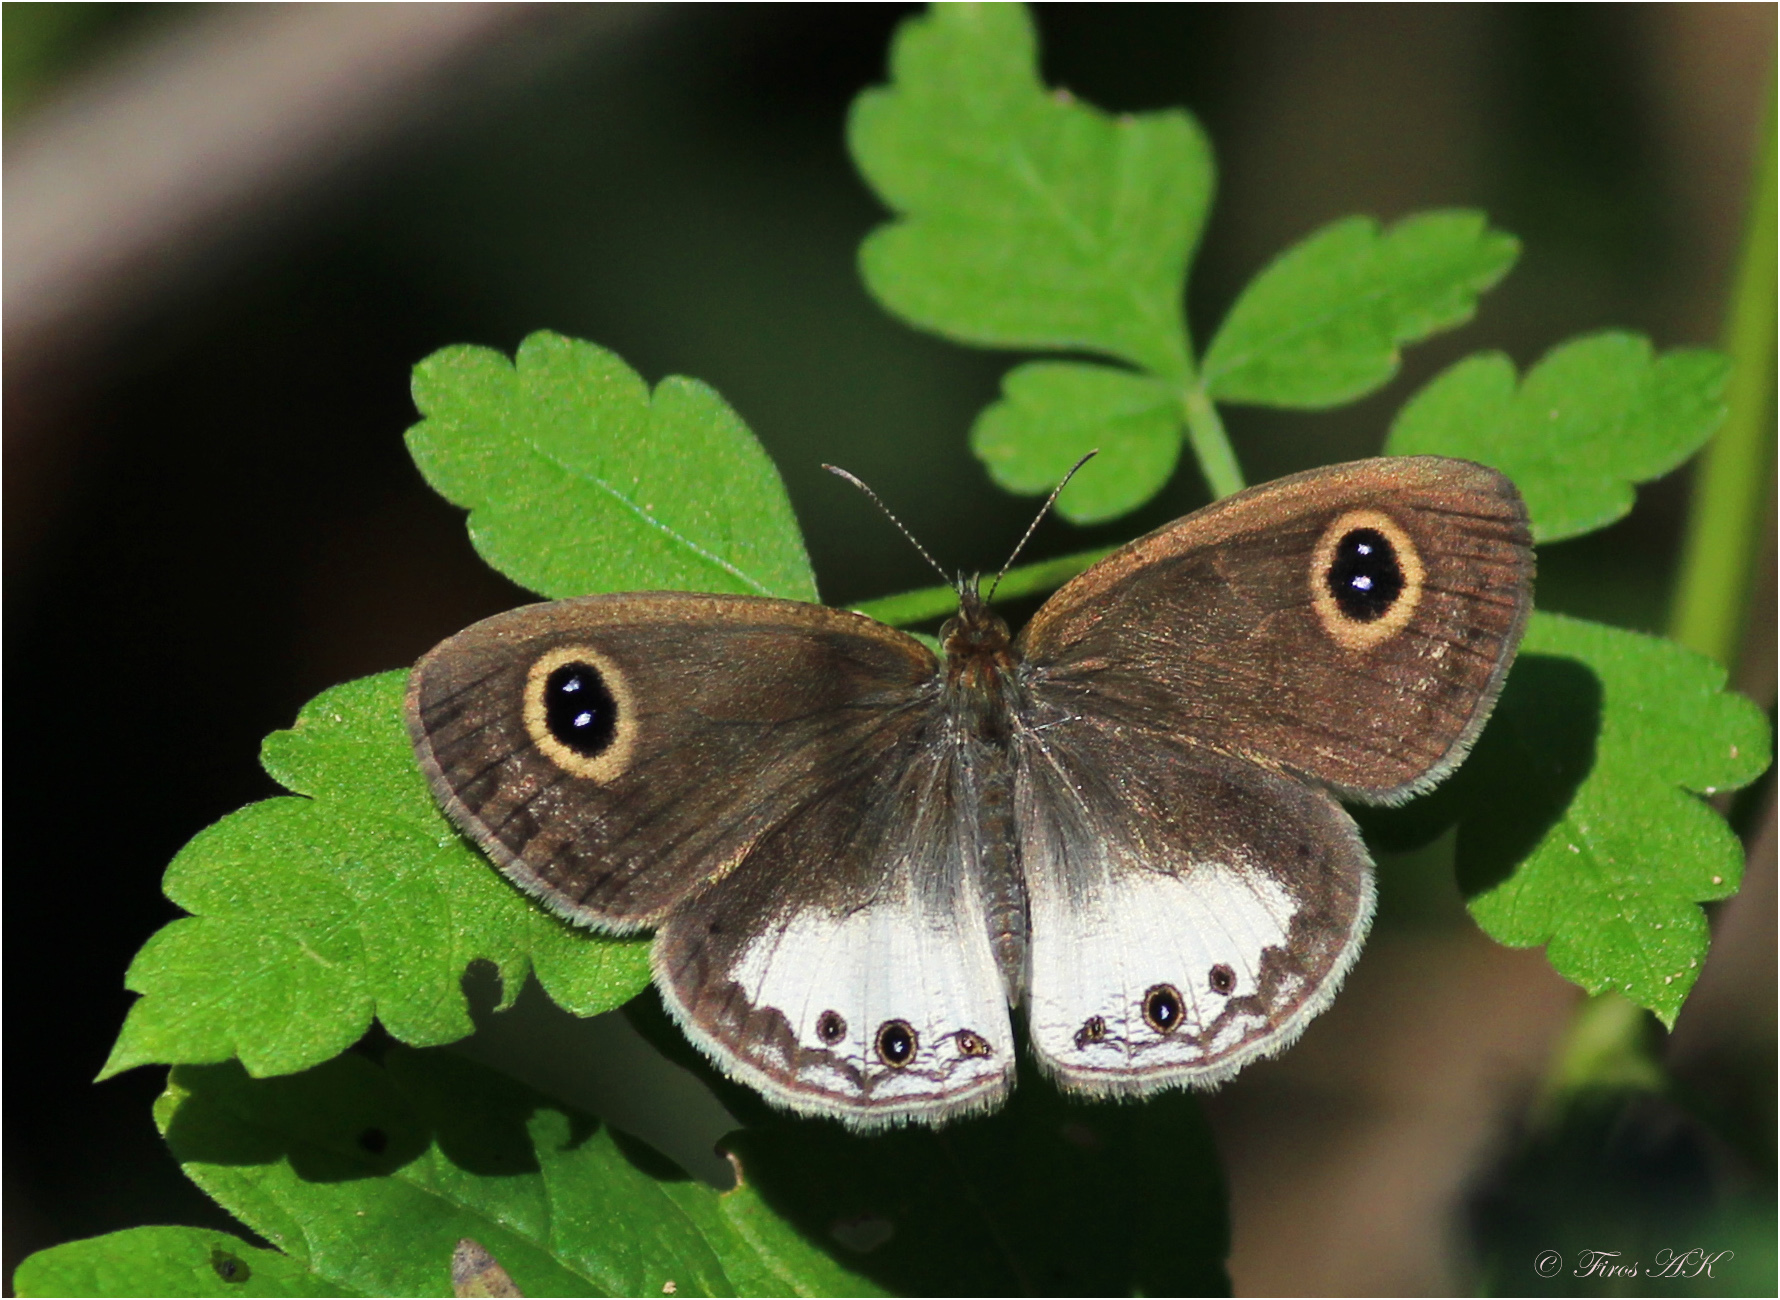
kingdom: Animalia
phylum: Arthropoda
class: Insecta
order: Lepidoptera
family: Nymphalidae
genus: Ypthima
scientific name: Ypthima ceylonica
